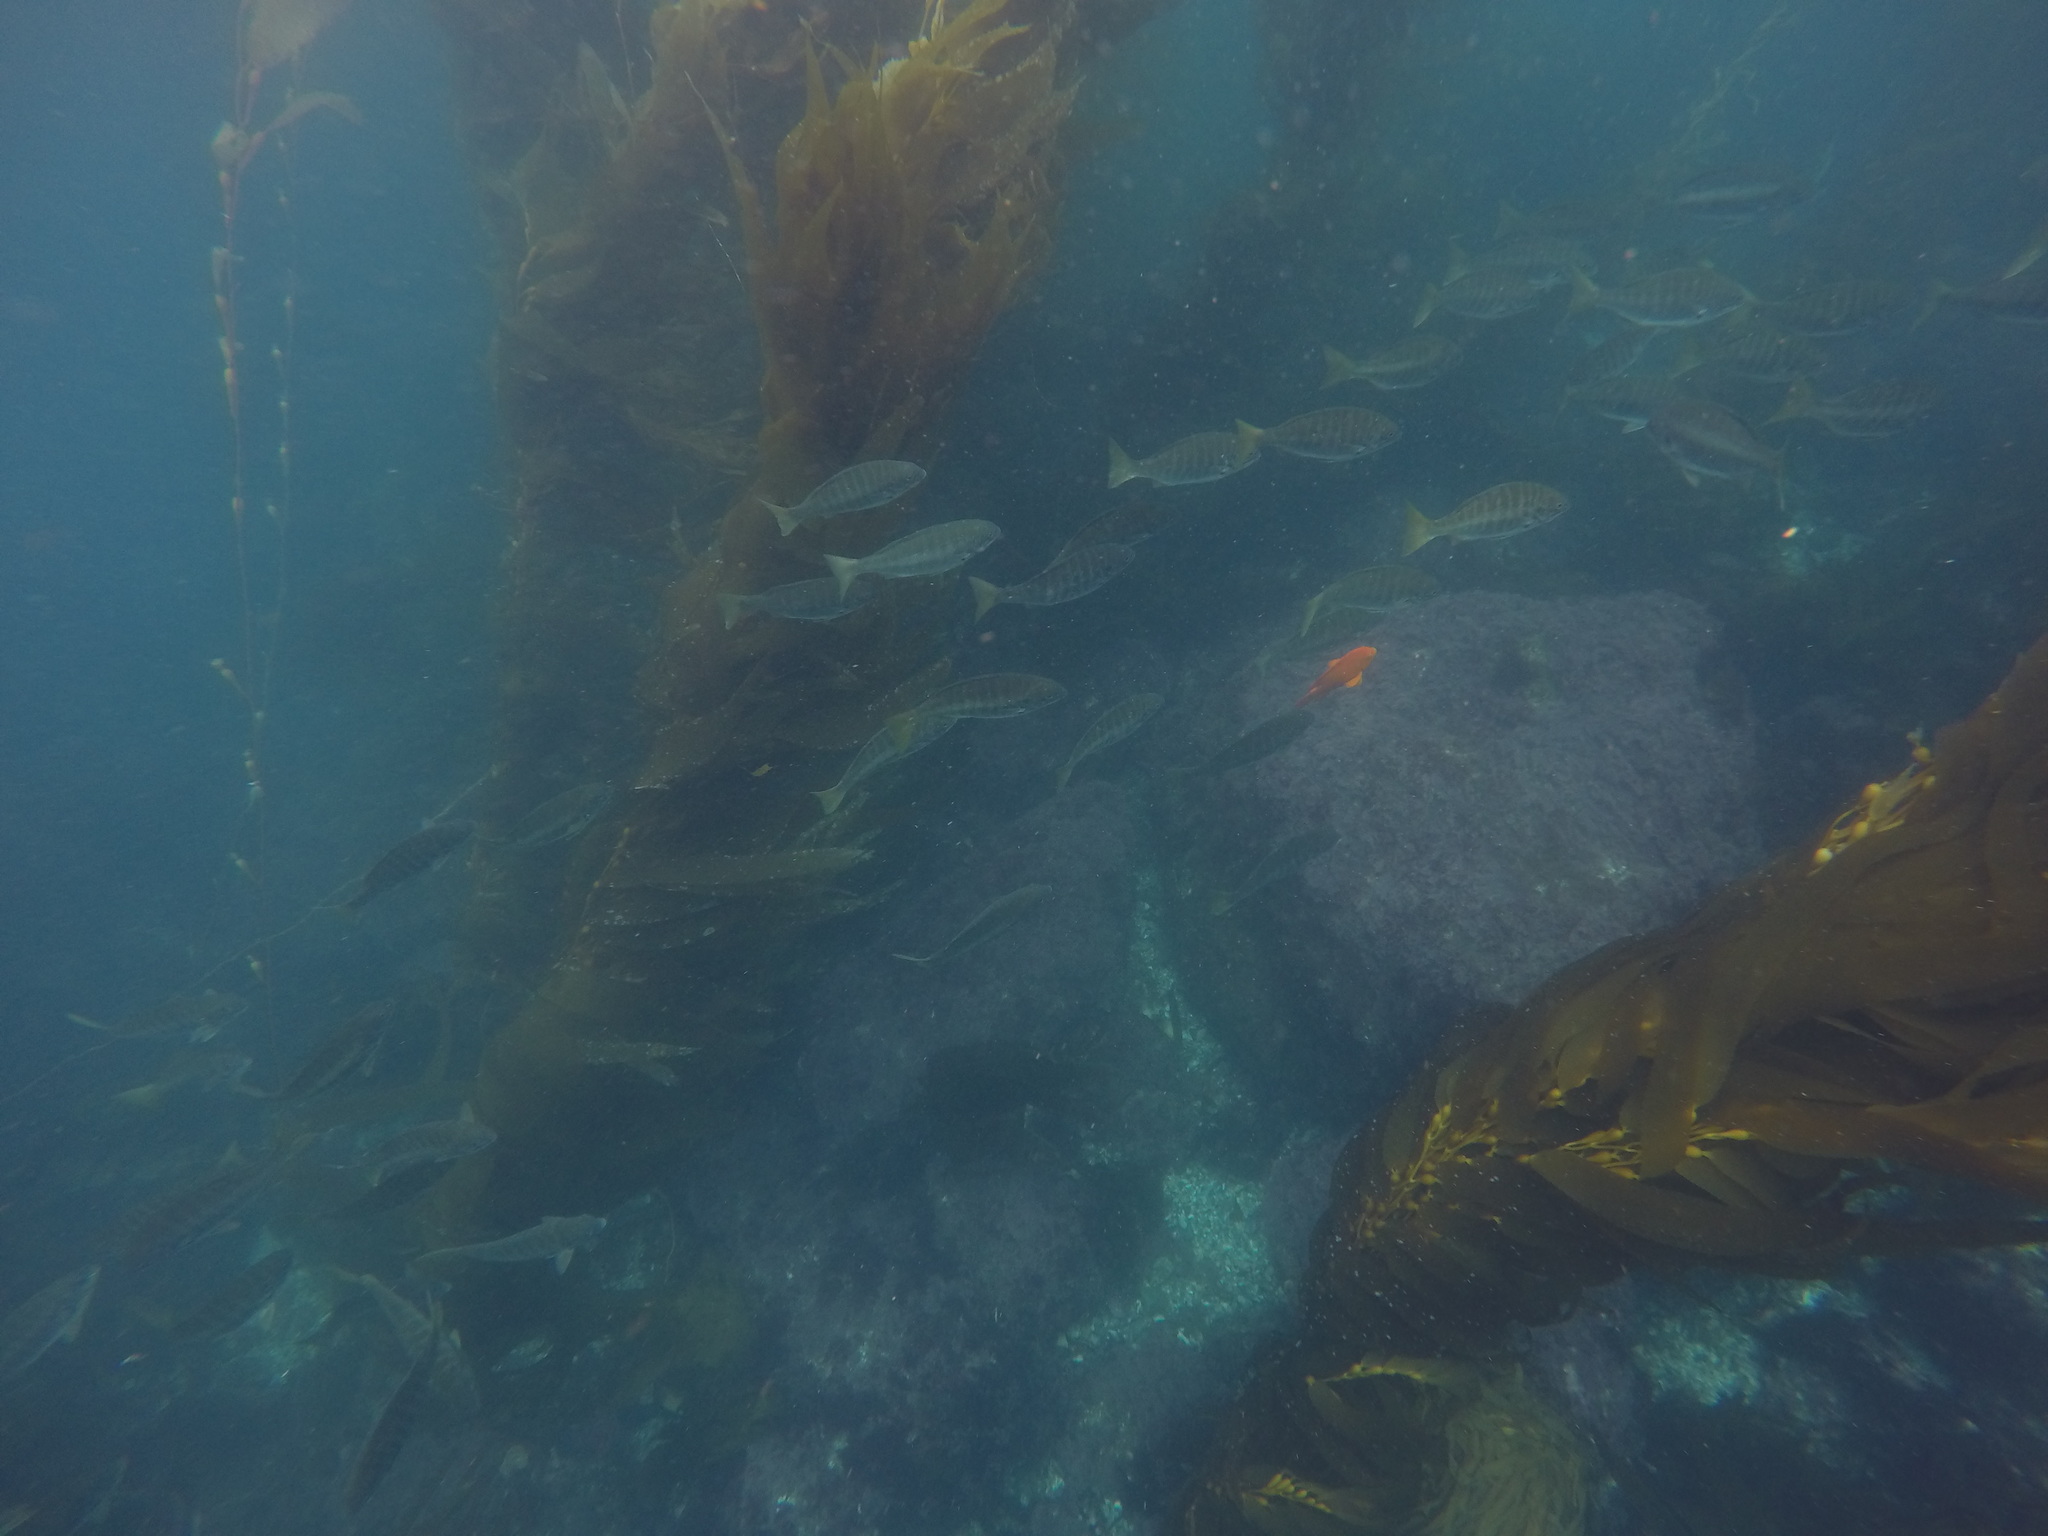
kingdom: Animalia
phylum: Chordata
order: Perciformes
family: Kyphosidae
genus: Kyphosus
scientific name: Kyphosus azureus
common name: Perch
